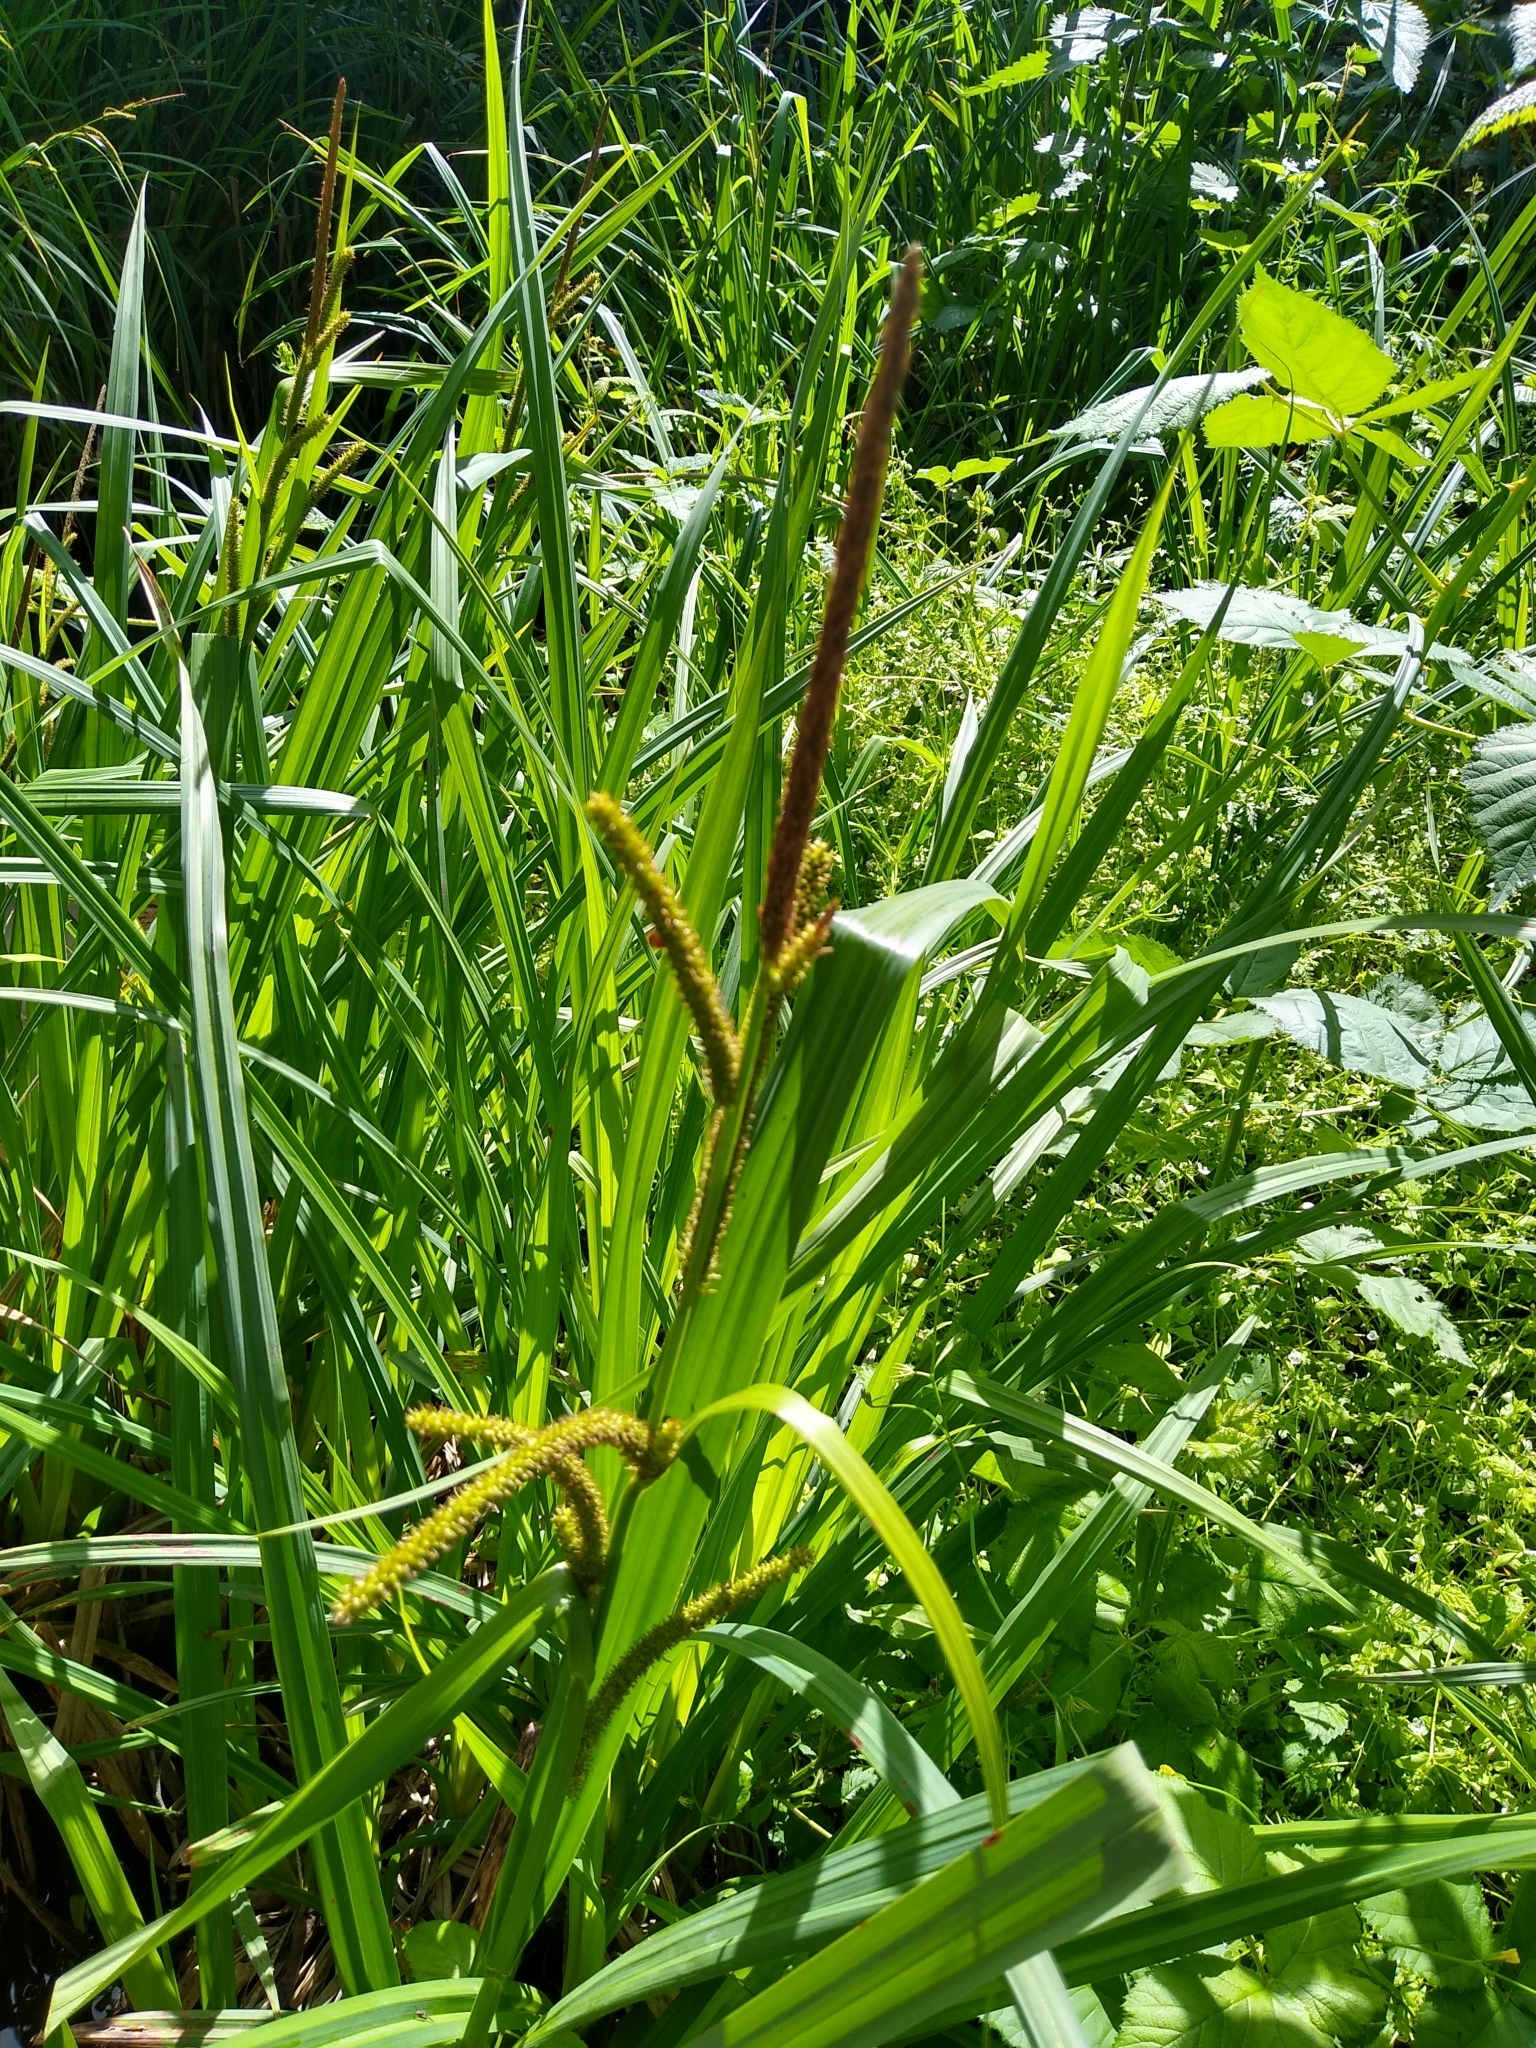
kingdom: Plantae
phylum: Tracheophyta
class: Liliopsida
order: Poales
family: Cyperaceae
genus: Carex
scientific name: Carex amplifolia
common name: Ample-leaved sedge
